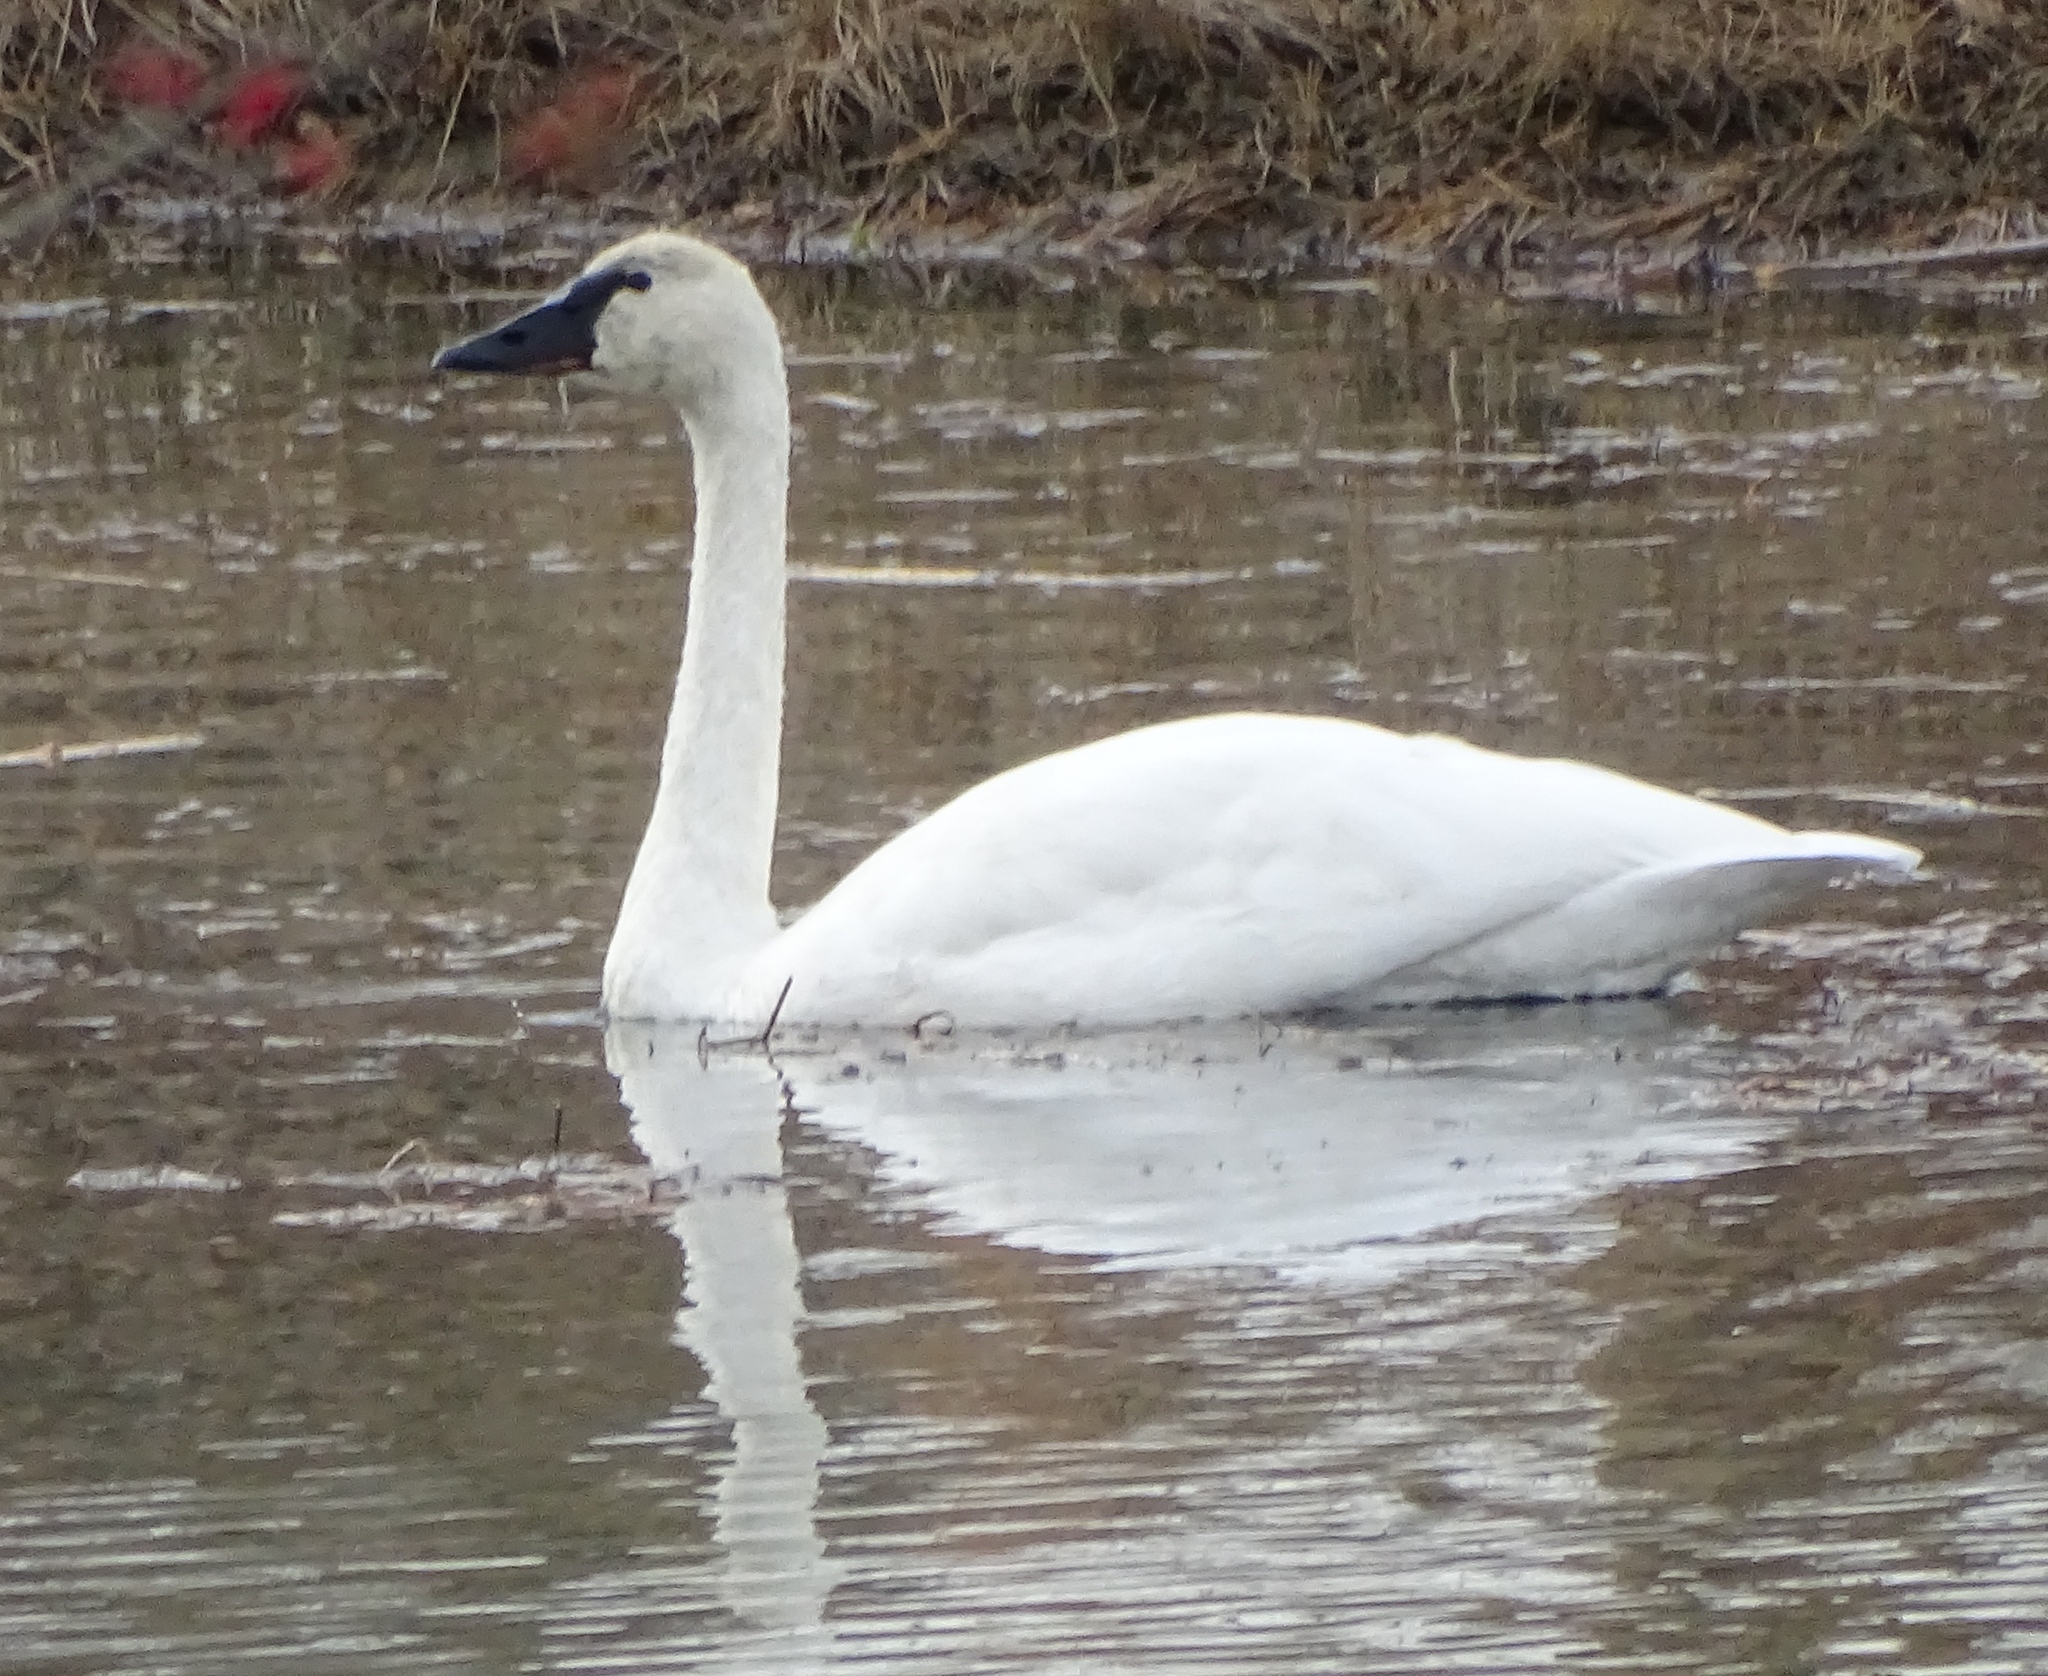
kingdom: Animalia
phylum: Chordata
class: Aves
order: Anseriformes
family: Anatidae
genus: Cygnus
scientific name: Cygnus columbianus
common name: Tundra swan
